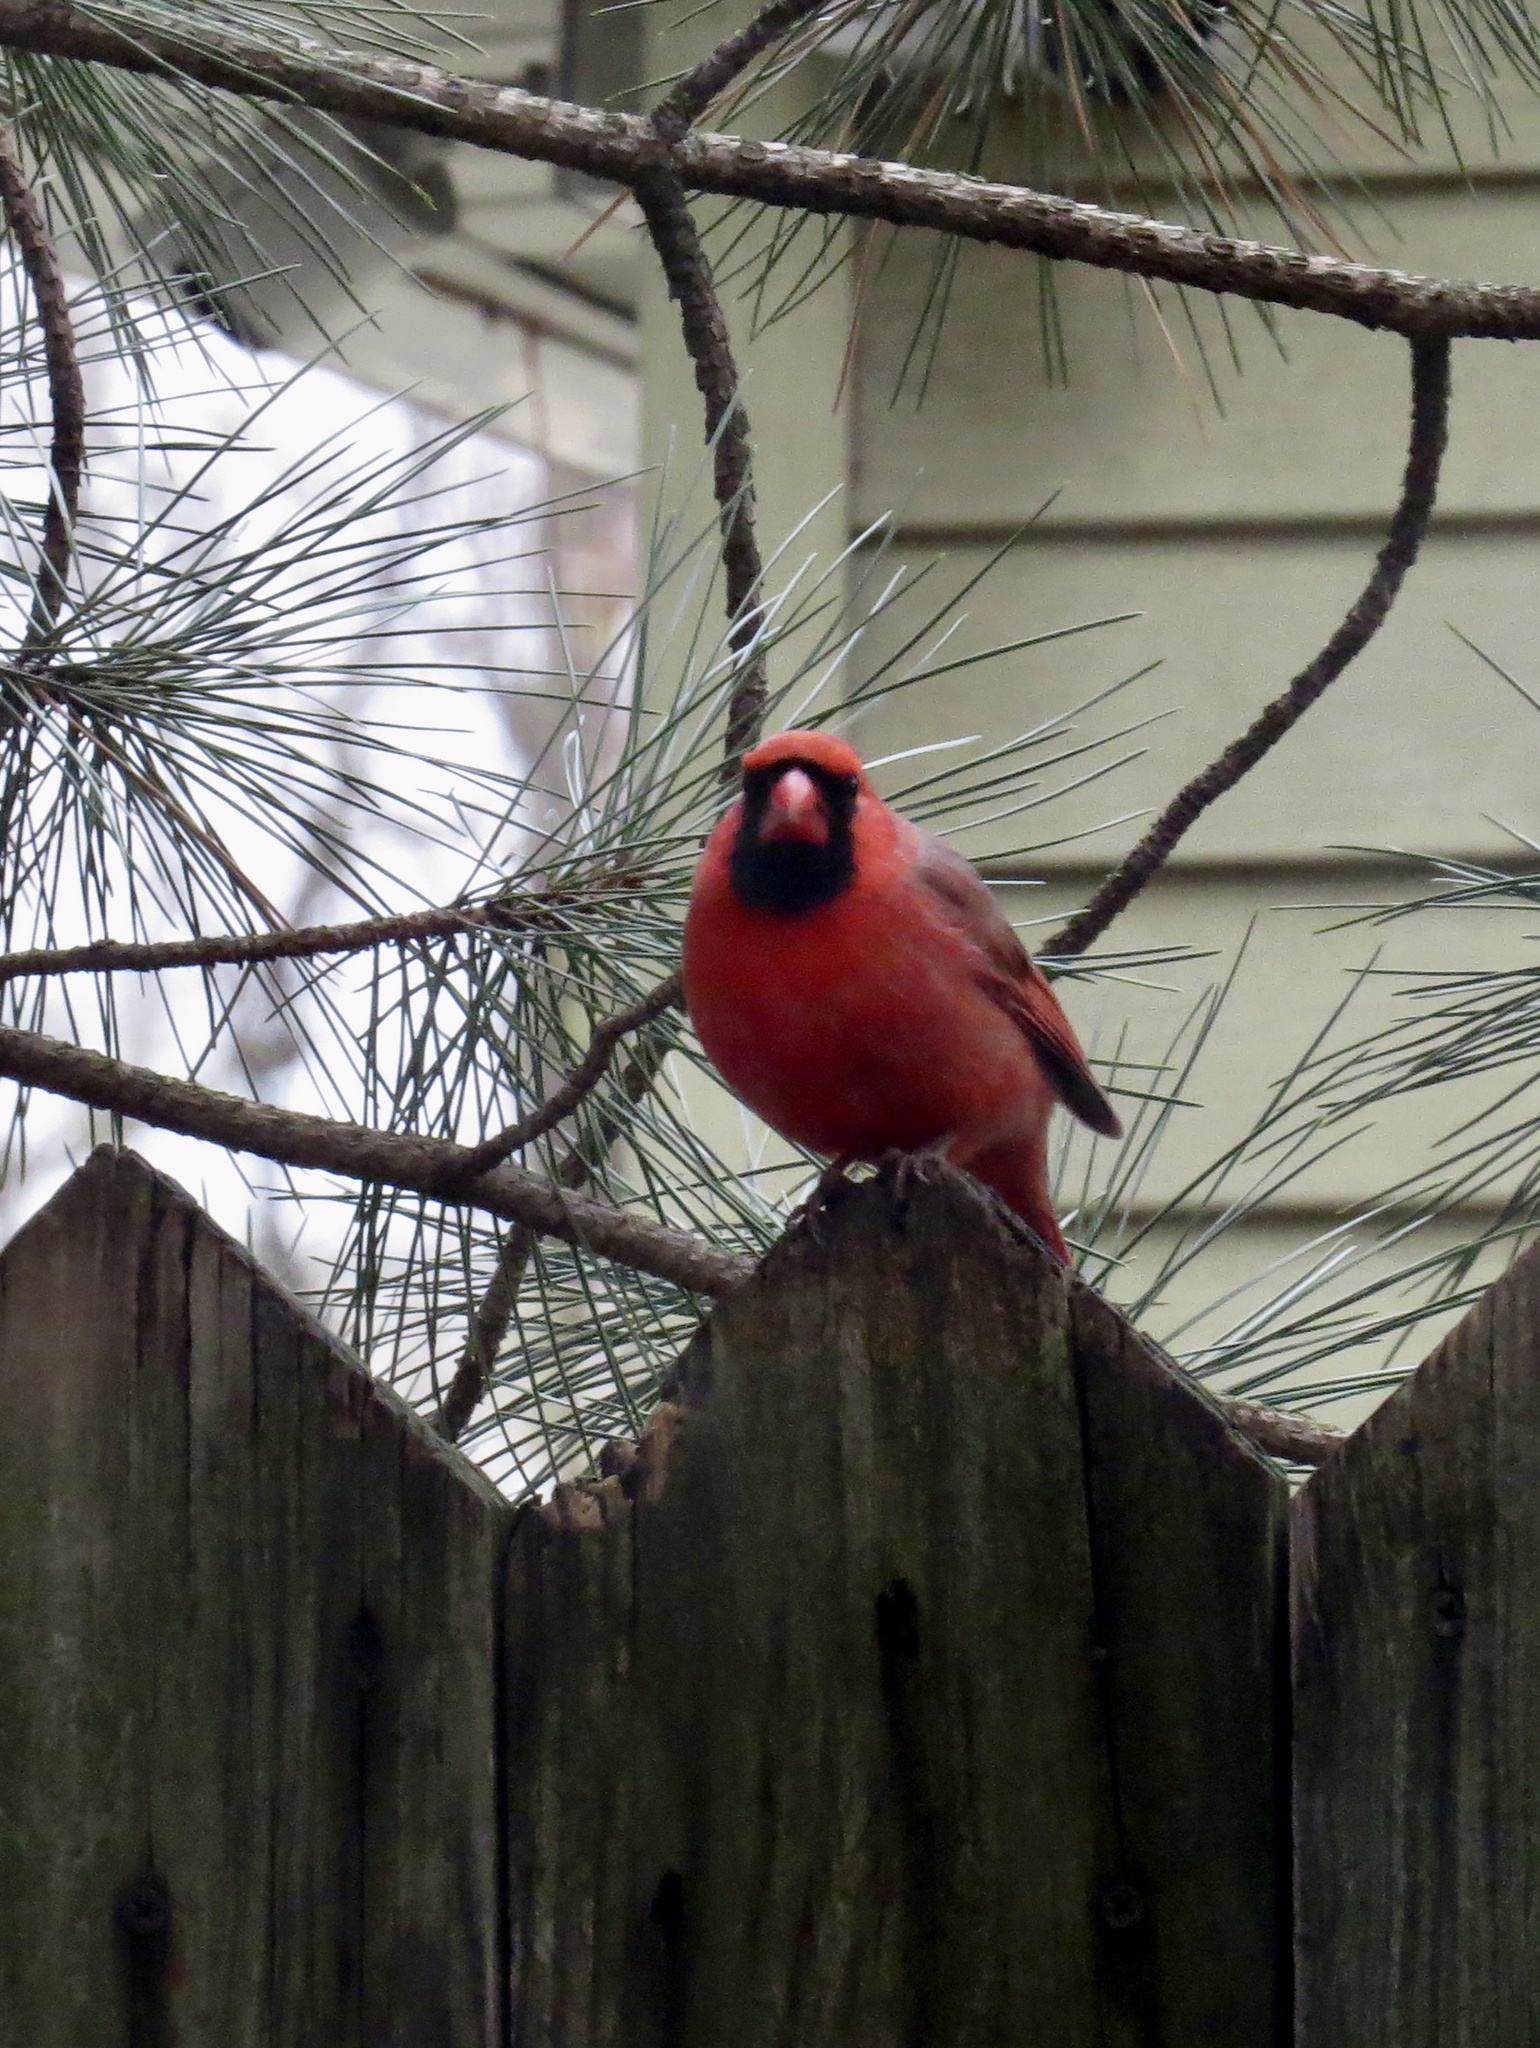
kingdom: Animalia
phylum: Chordata
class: Aves
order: Passeriformes
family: Cardinalidae
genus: Cardinalis
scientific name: Cardinalis cardinalis
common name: Northern cardinal
